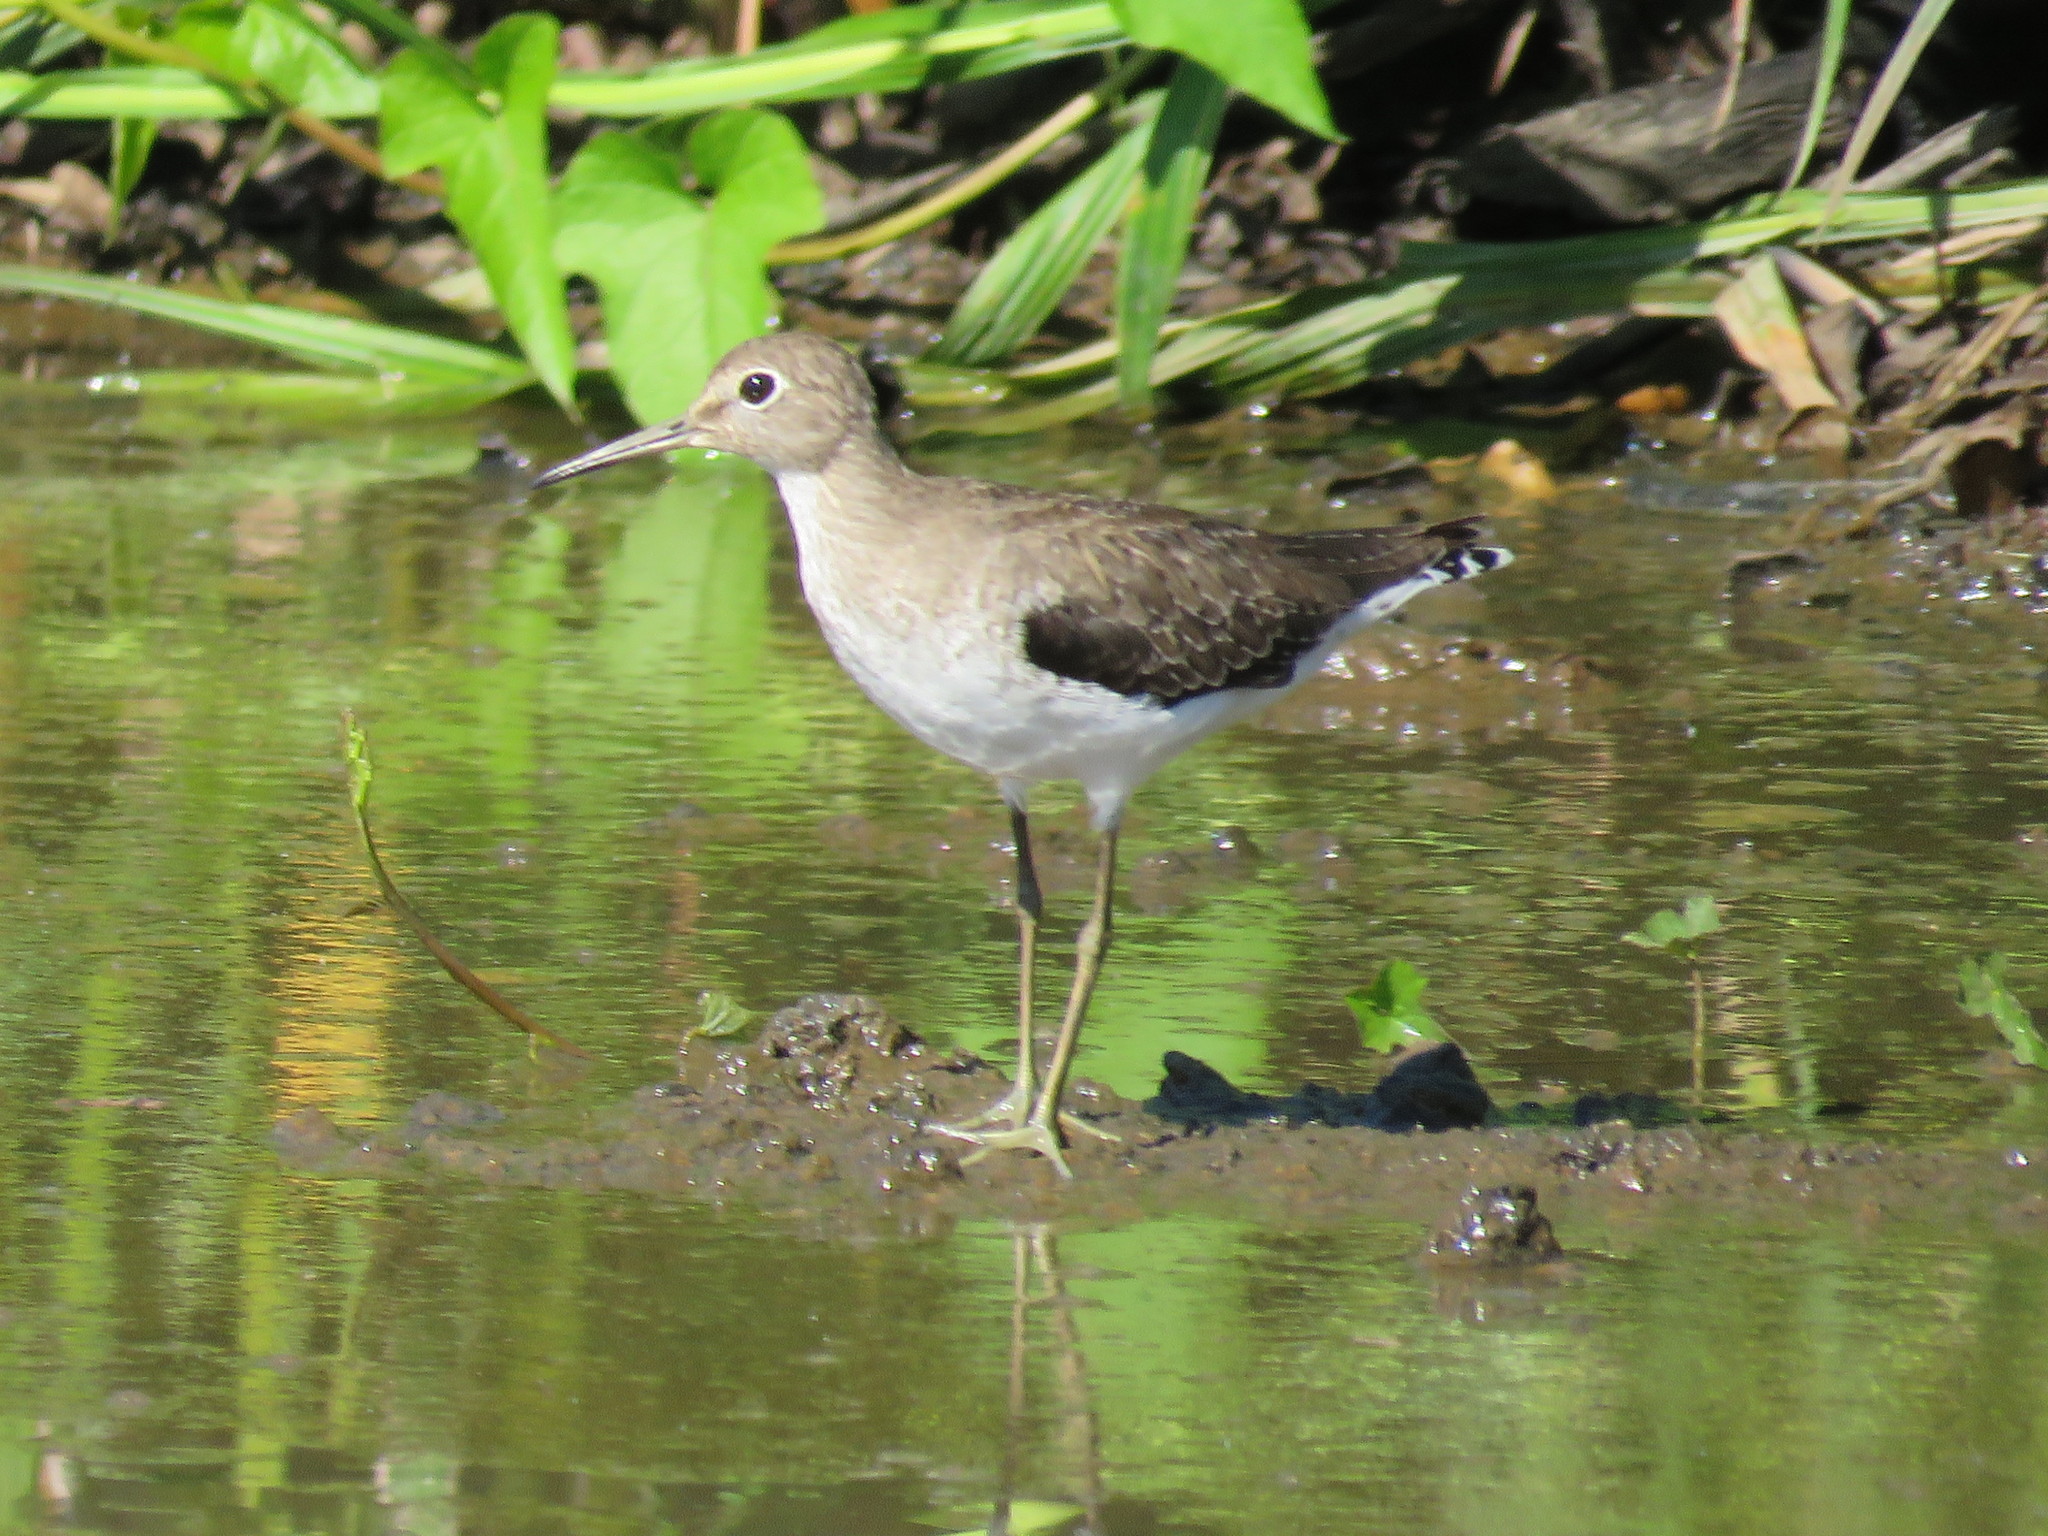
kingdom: Animalia
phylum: Chordata
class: Aves
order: Charadriiformes
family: Scolopacidae
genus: Tringa
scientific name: Tringa solitaria
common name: Solitary sandpiper
